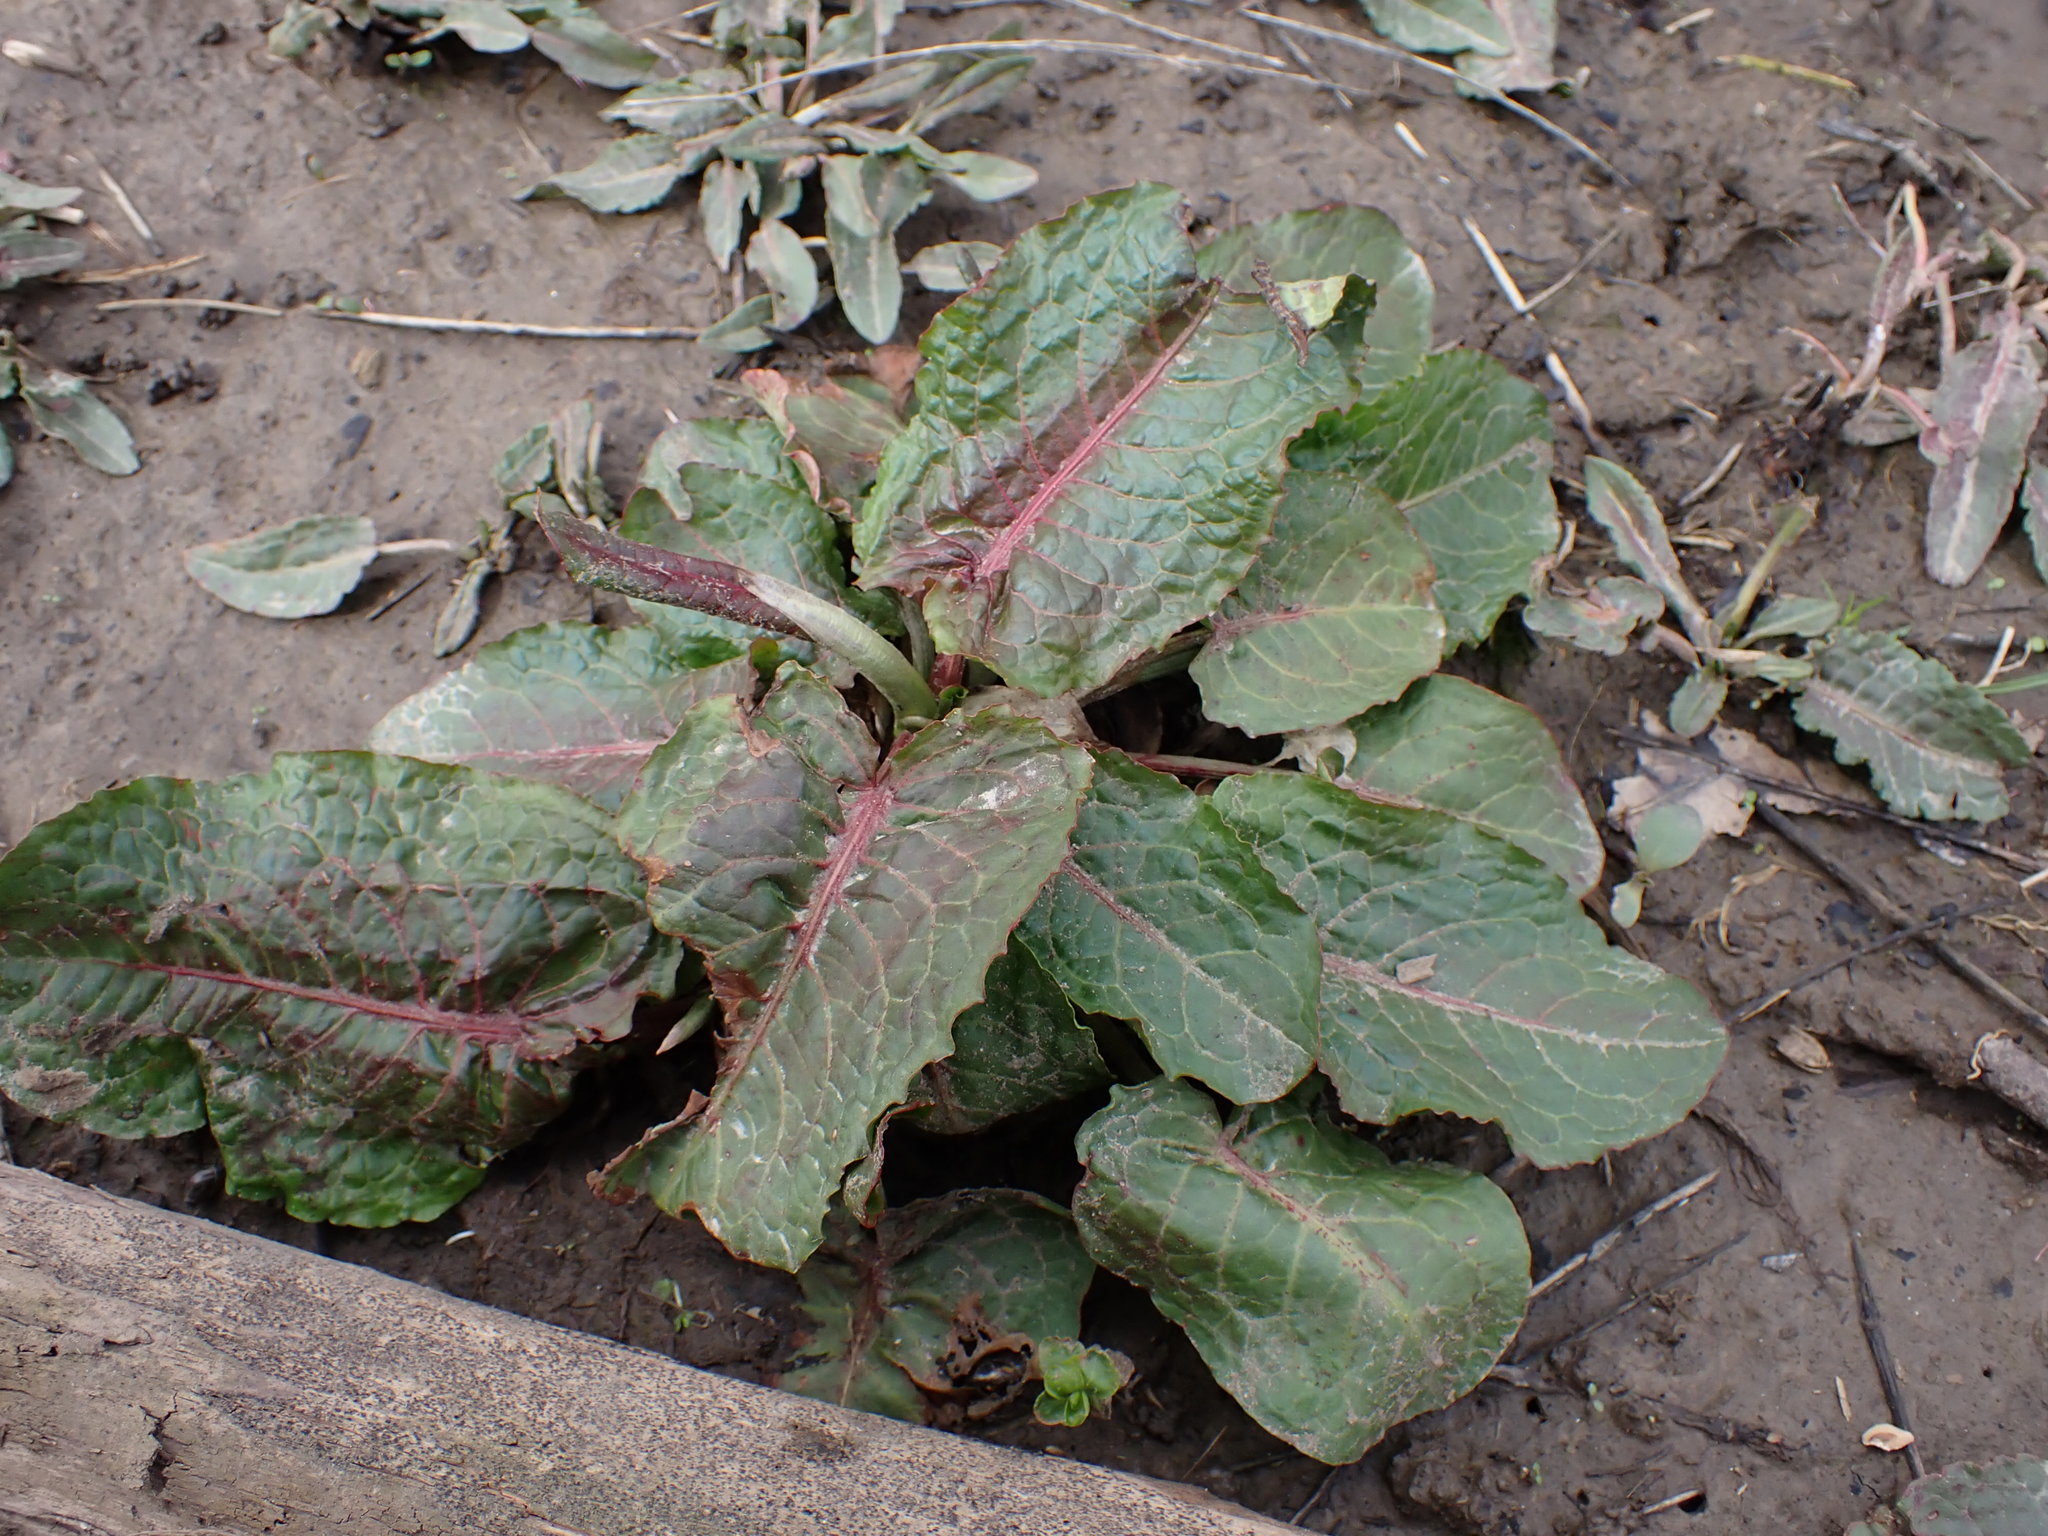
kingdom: Plantae
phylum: Tracheophyta
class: Magnoliopsida
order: Caryophyllales
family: Polygonaceae
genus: Rumex
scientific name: Rumex obtusifolius
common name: Bitter dock
